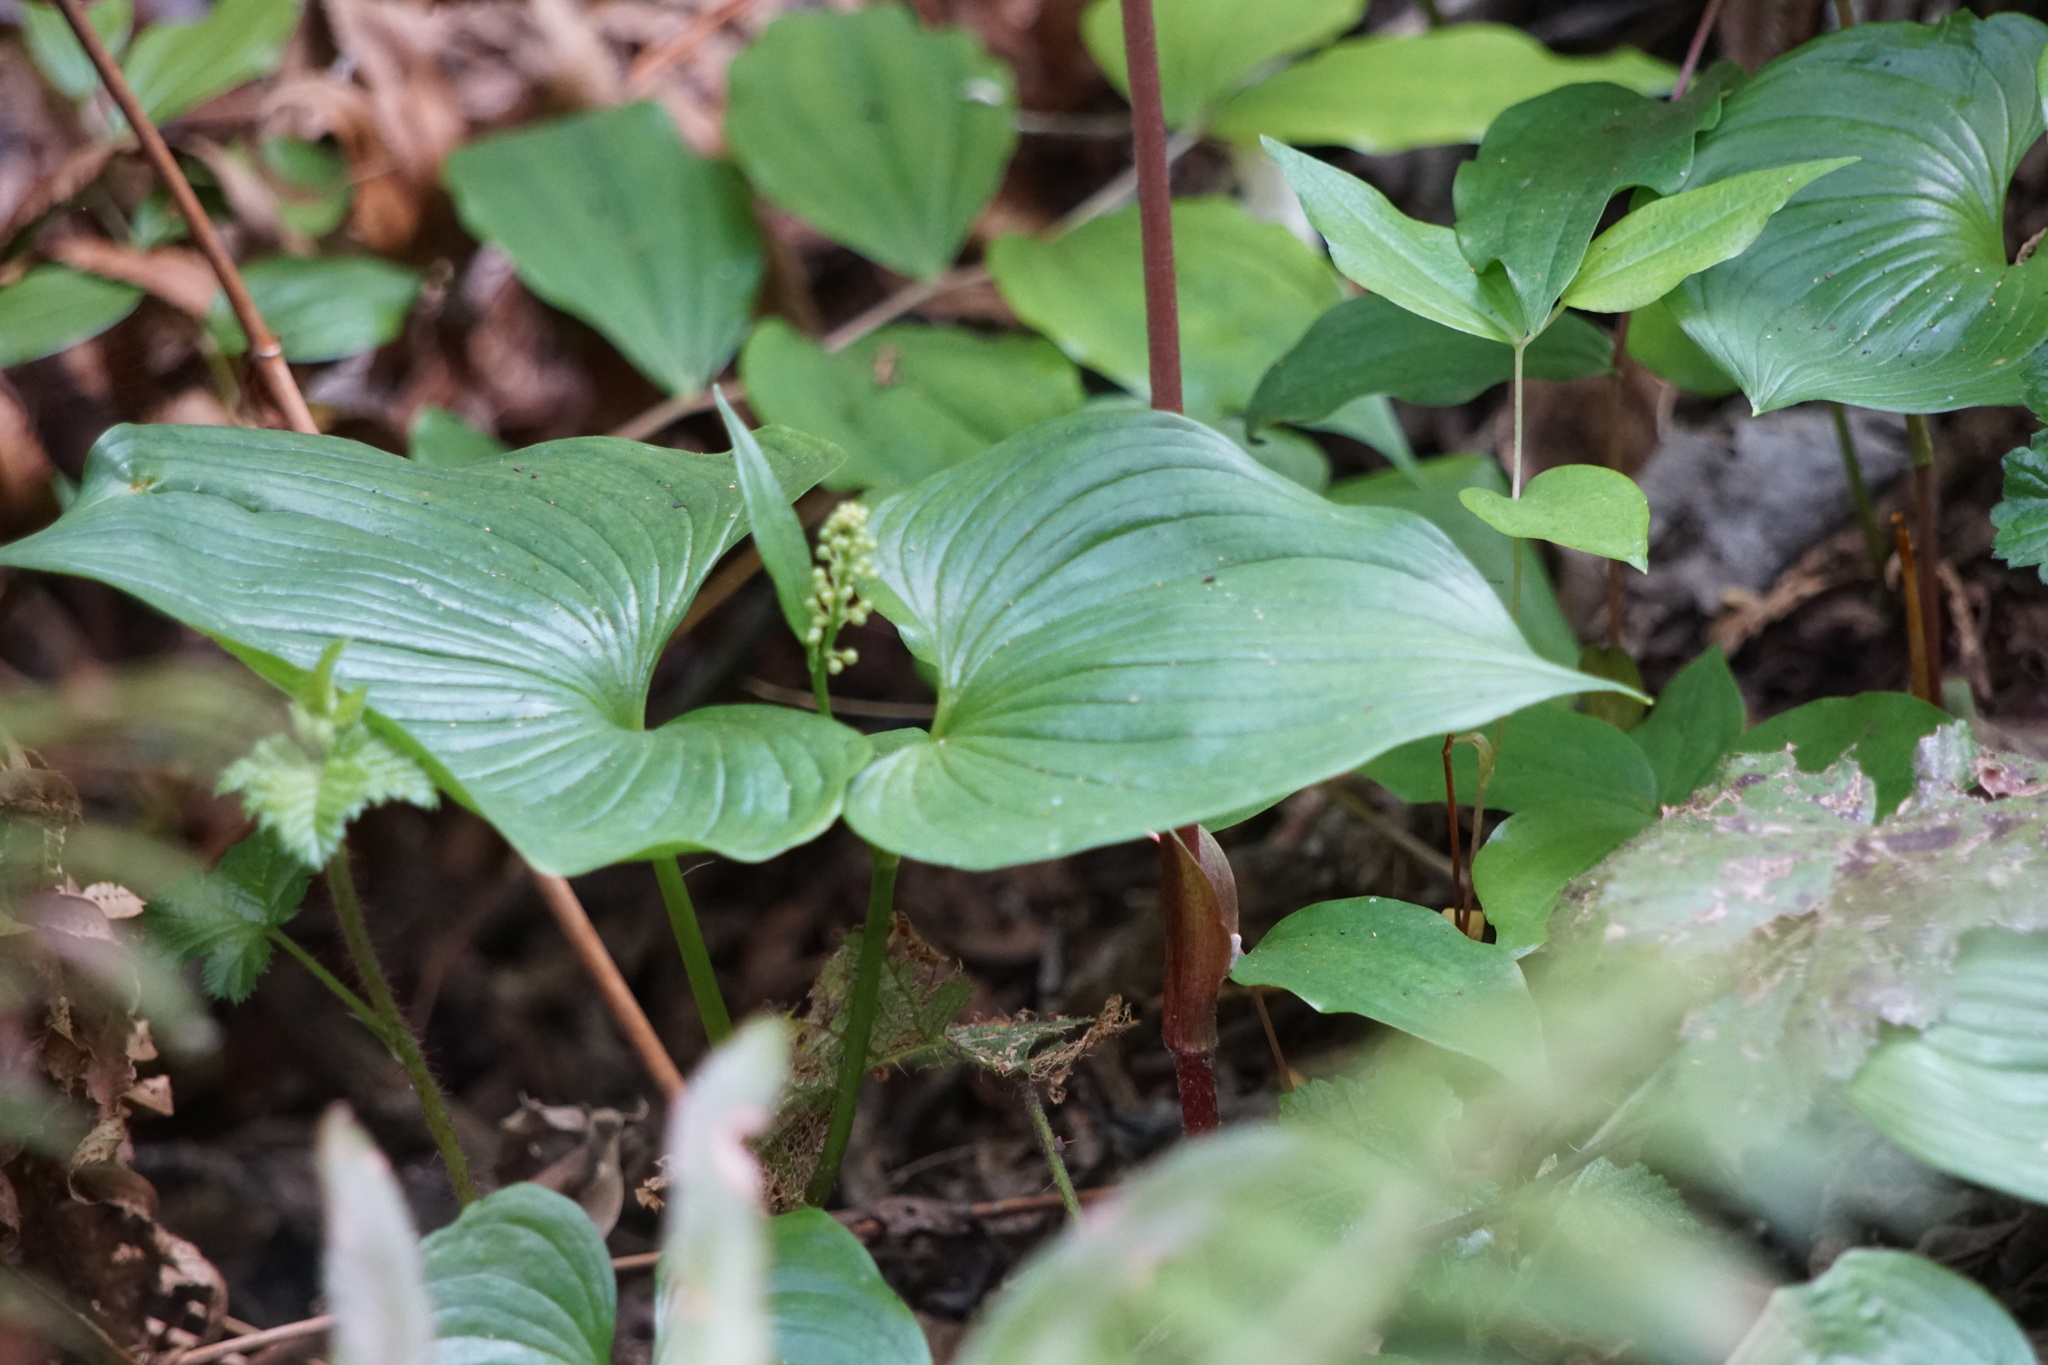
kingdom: Plantae
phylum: Tracheophyta
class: Liliopsida
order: Asparagales
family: Asparagaceae
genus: Maianthemum
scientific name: Maianthemum dilatatum
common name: False lily-of-the-valley
